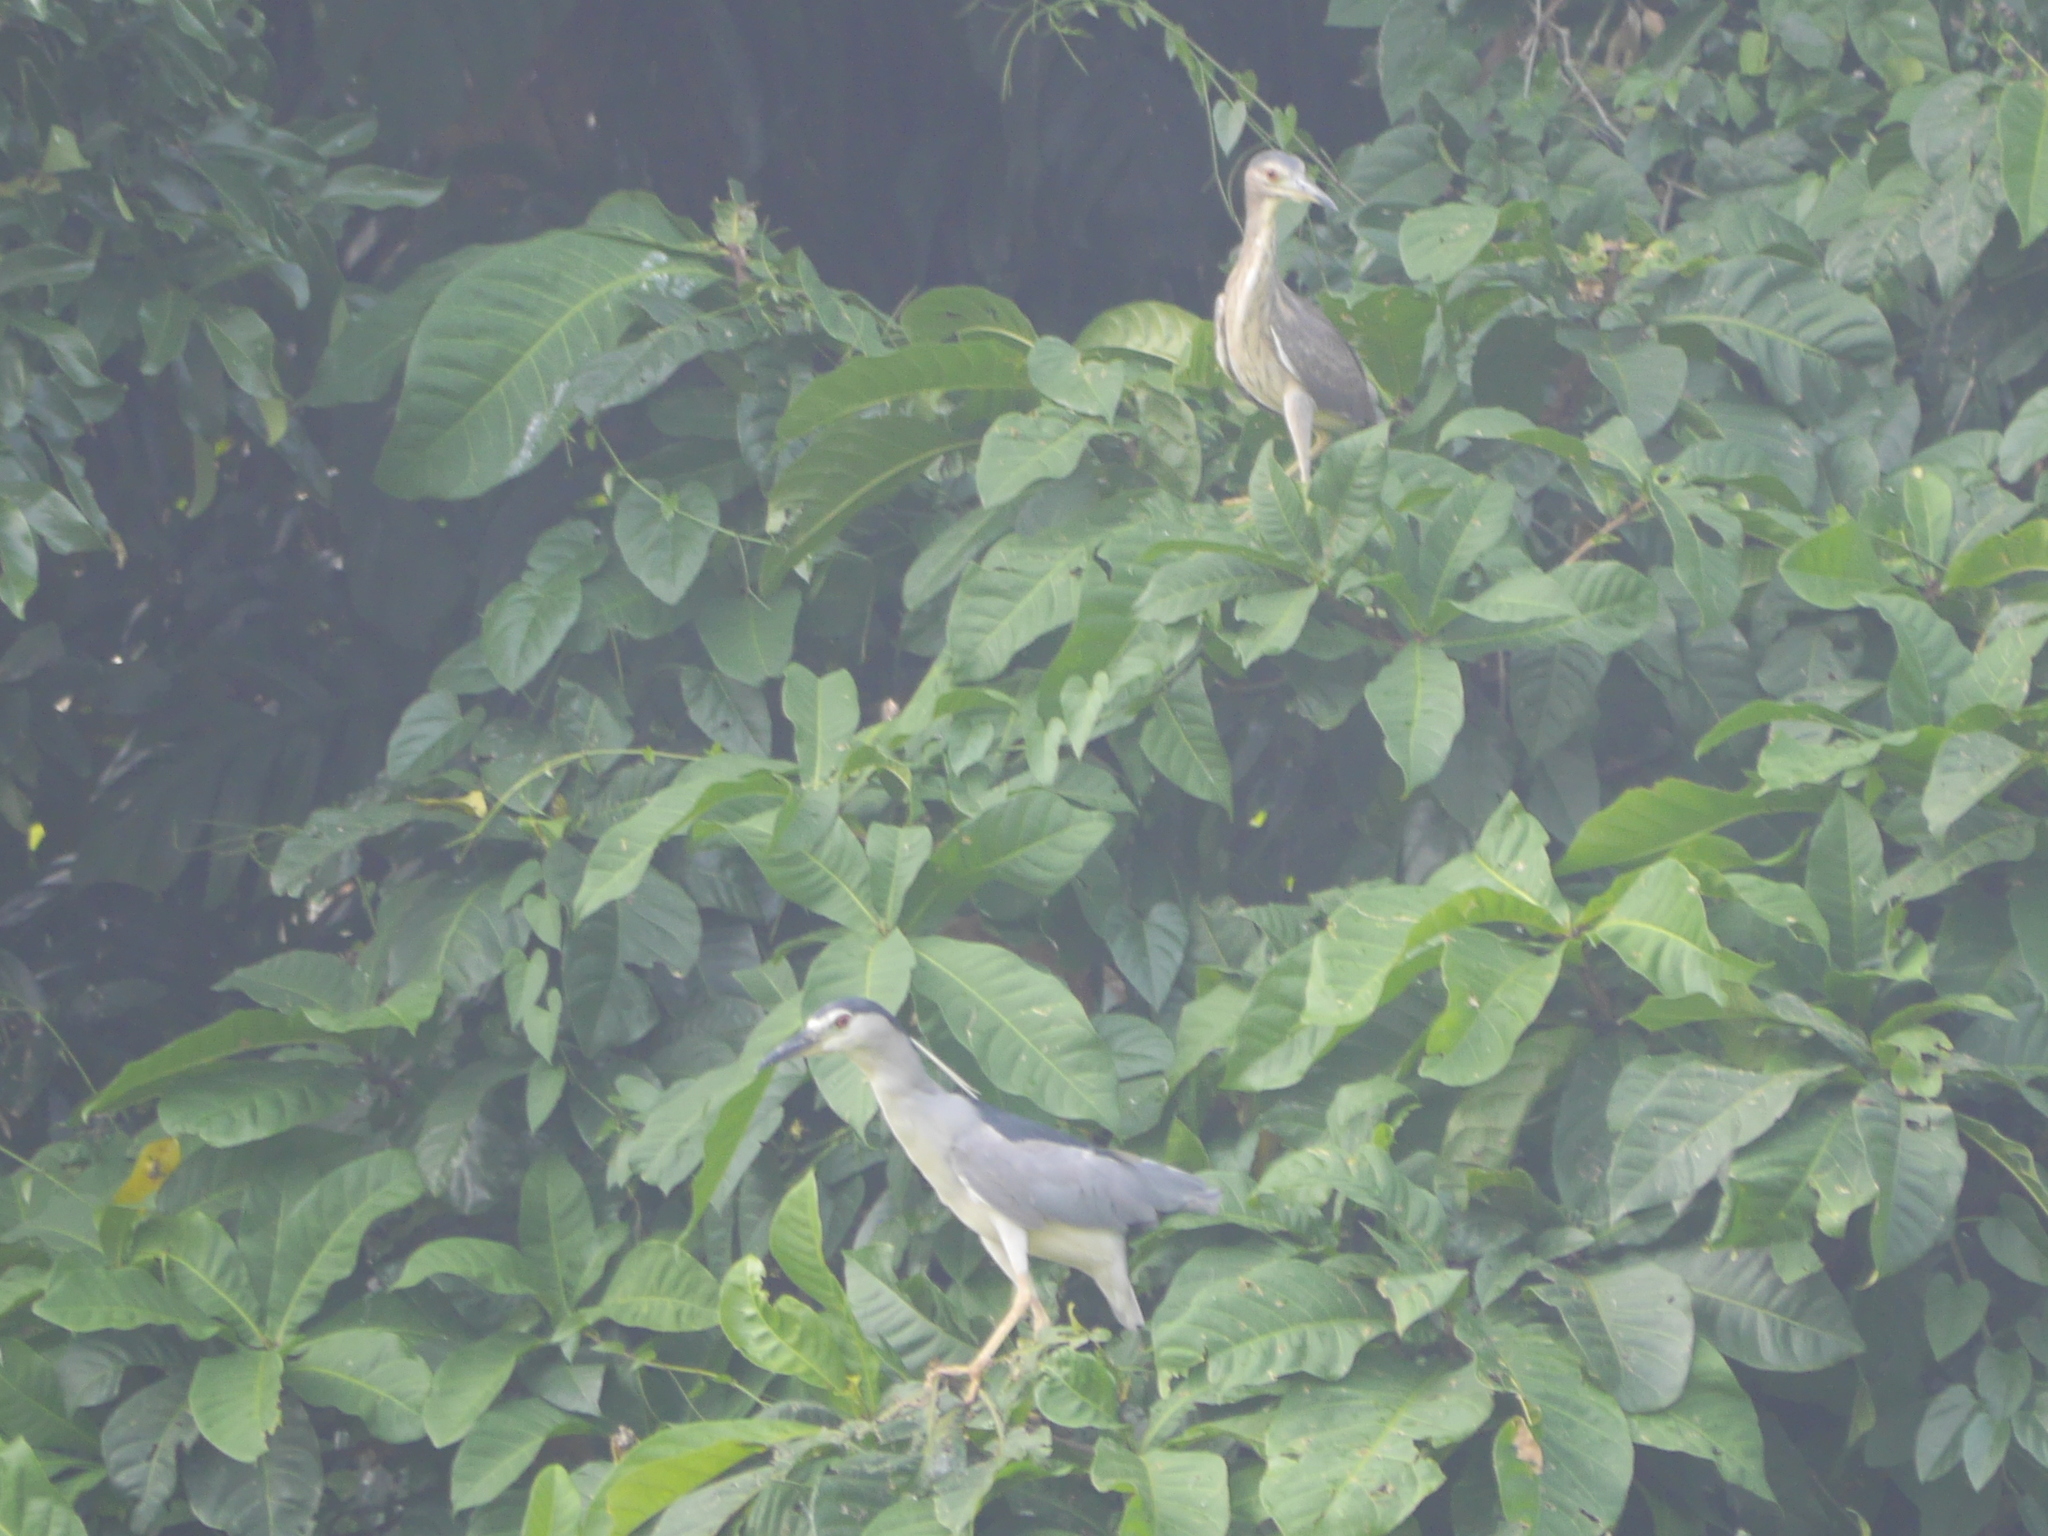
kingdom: Animalia
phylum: Chordata
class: Aves
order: Pelecaniformes
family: Ardeidae
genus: Nycticorax
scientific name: Nycticorax nycticorax
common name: Black-crowned night heron
